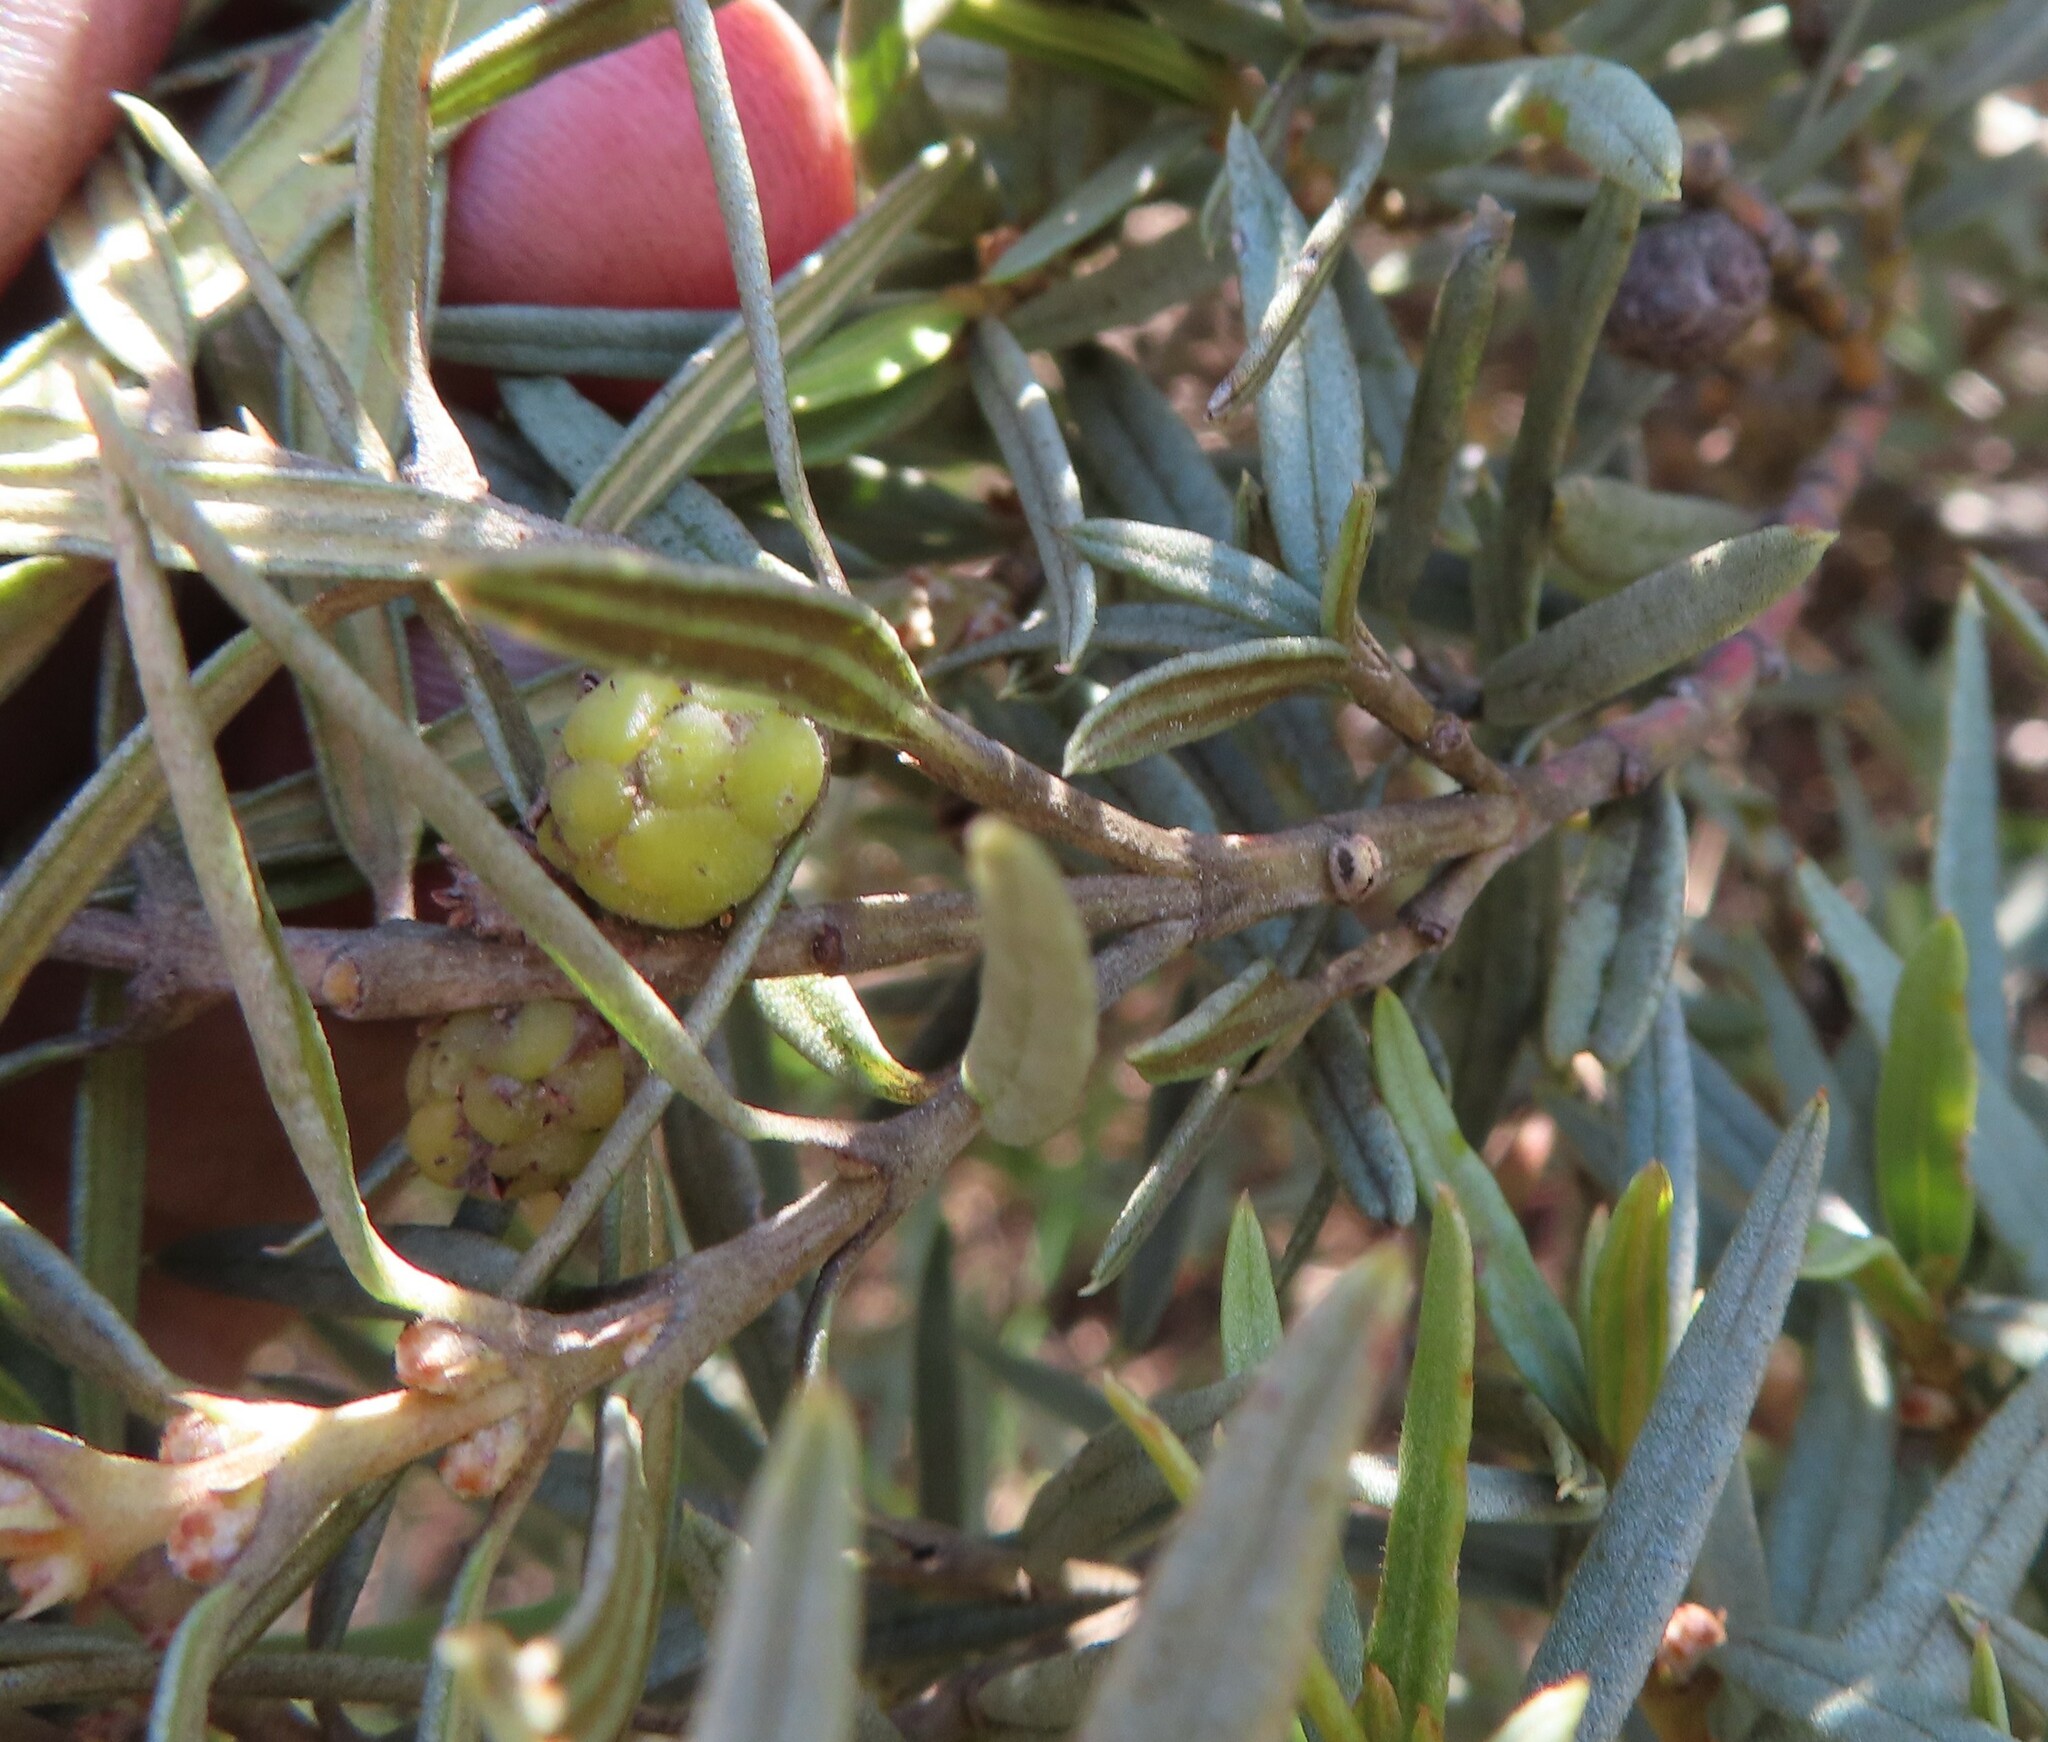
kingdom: Plantae
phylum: Tracheophyta
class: Magnoliopsida
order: Cornales
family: Grubbiaceae
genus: Grubbia
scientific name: Grubbia tomentosa
